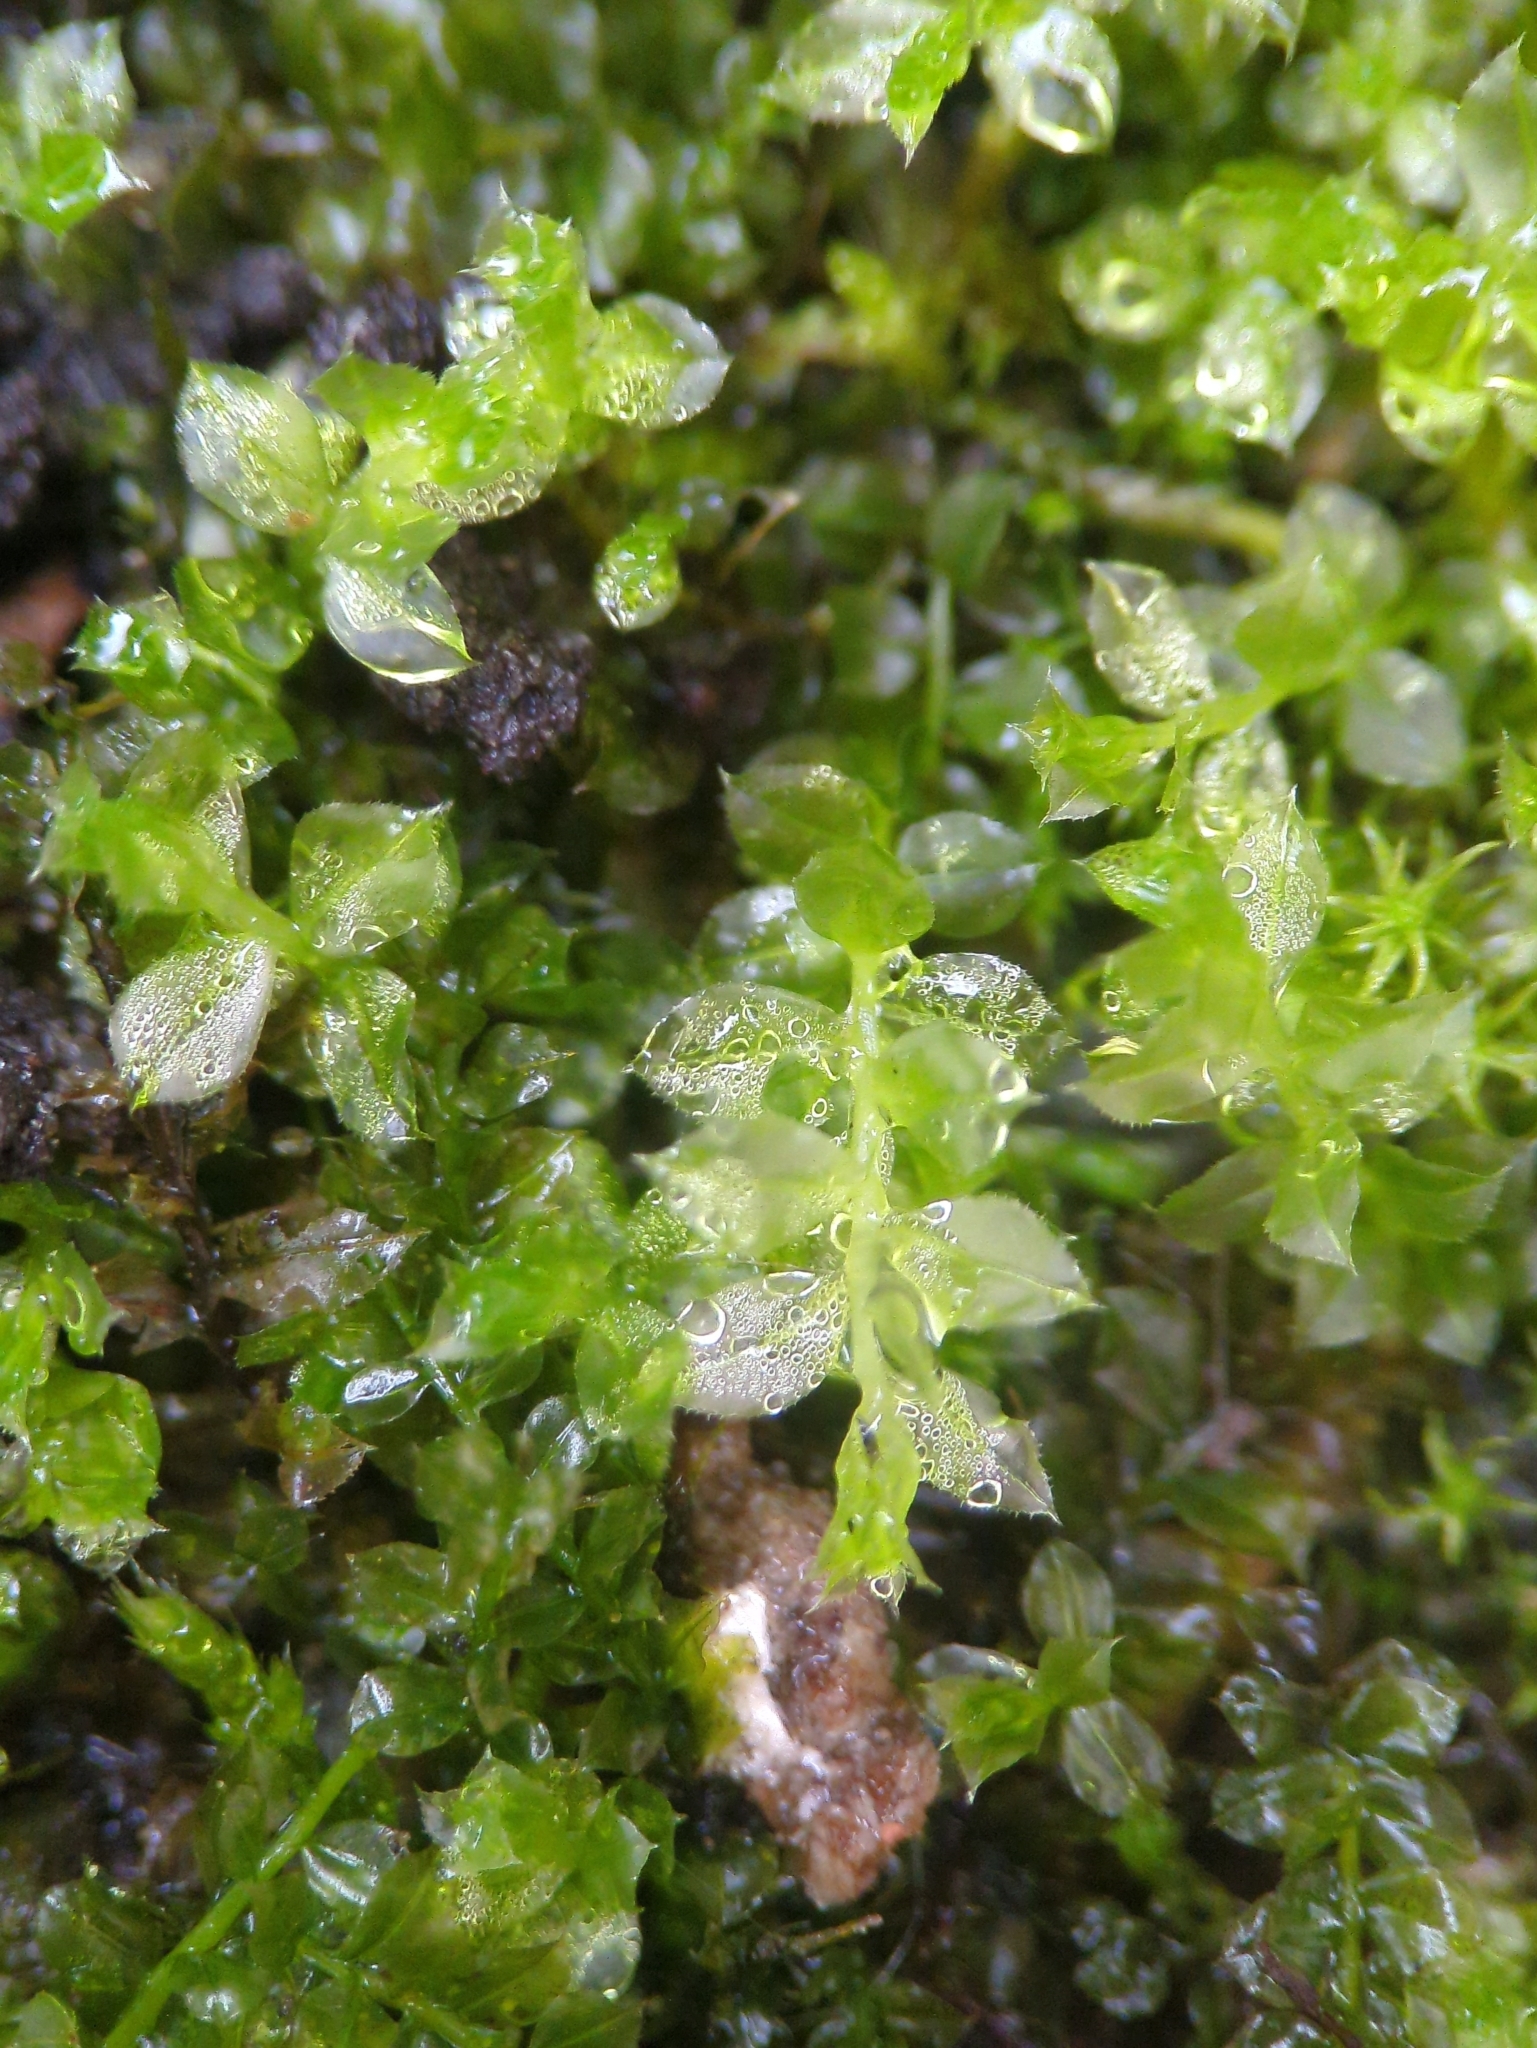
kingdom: Plantae
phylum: Bryophyta
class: Bryopsida
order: Bryales
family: Mniaceae
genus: Plagiomnium
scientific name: Plagiomnium cuspidatum
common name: Woodsy leafy moss
